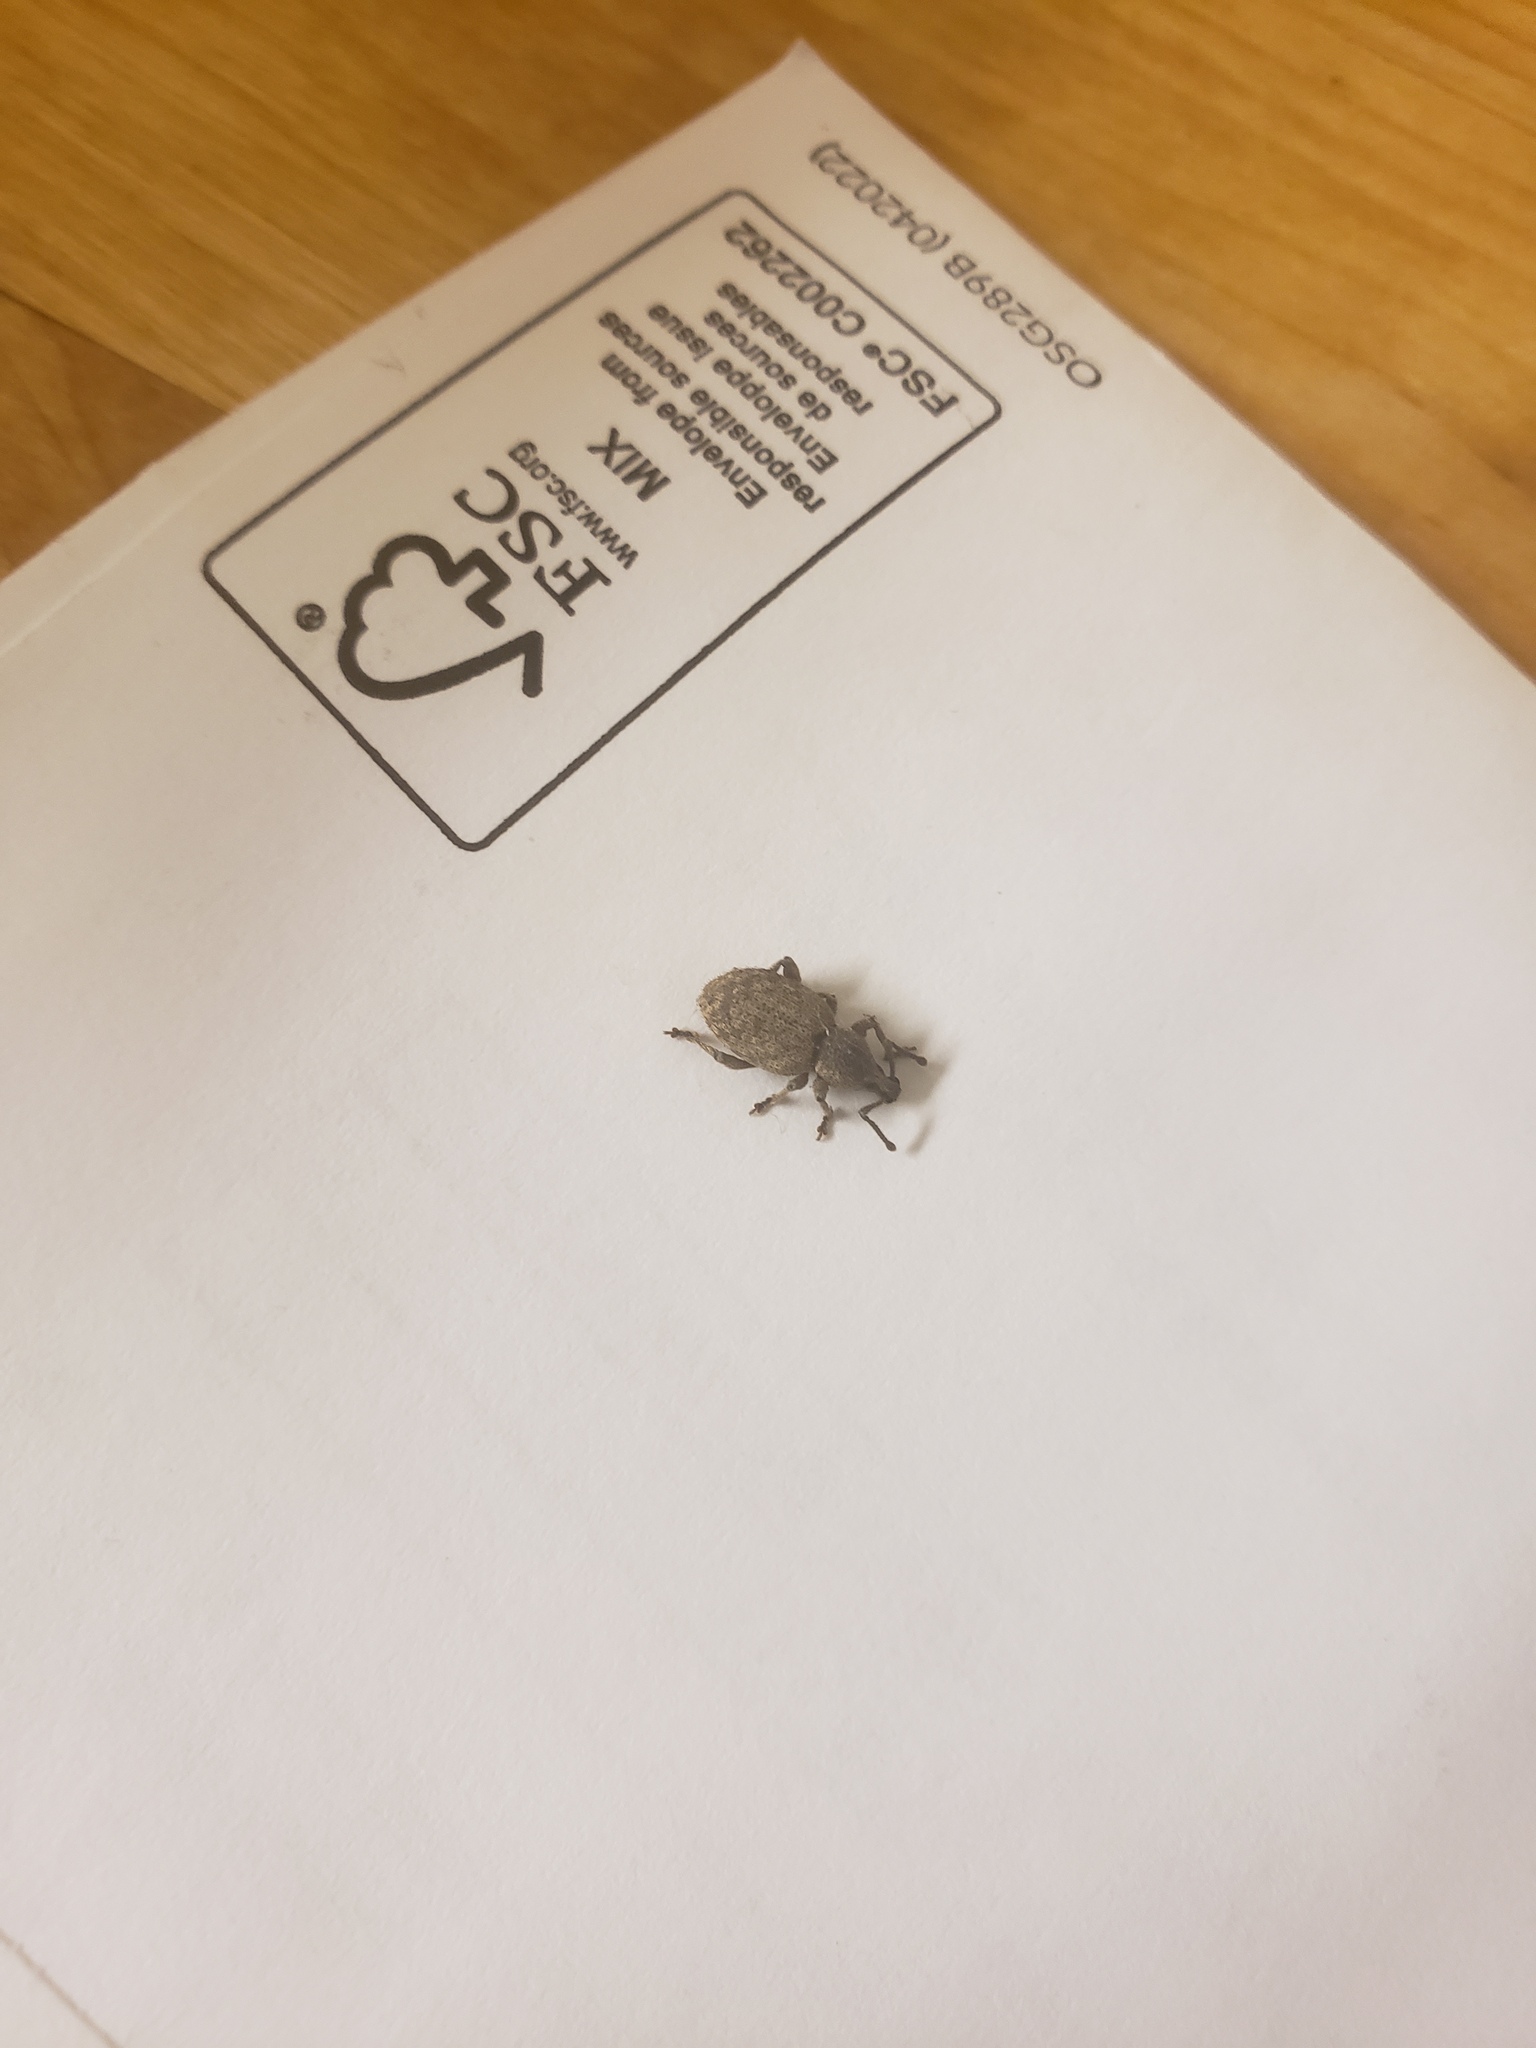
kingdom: Animalia
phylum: Arthropoda
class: Insecta
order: Coleoptera
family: Curculionidae
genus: Otiorhynchus
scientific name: Otiorhynchus singularis
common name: Clay-coloured weevil
